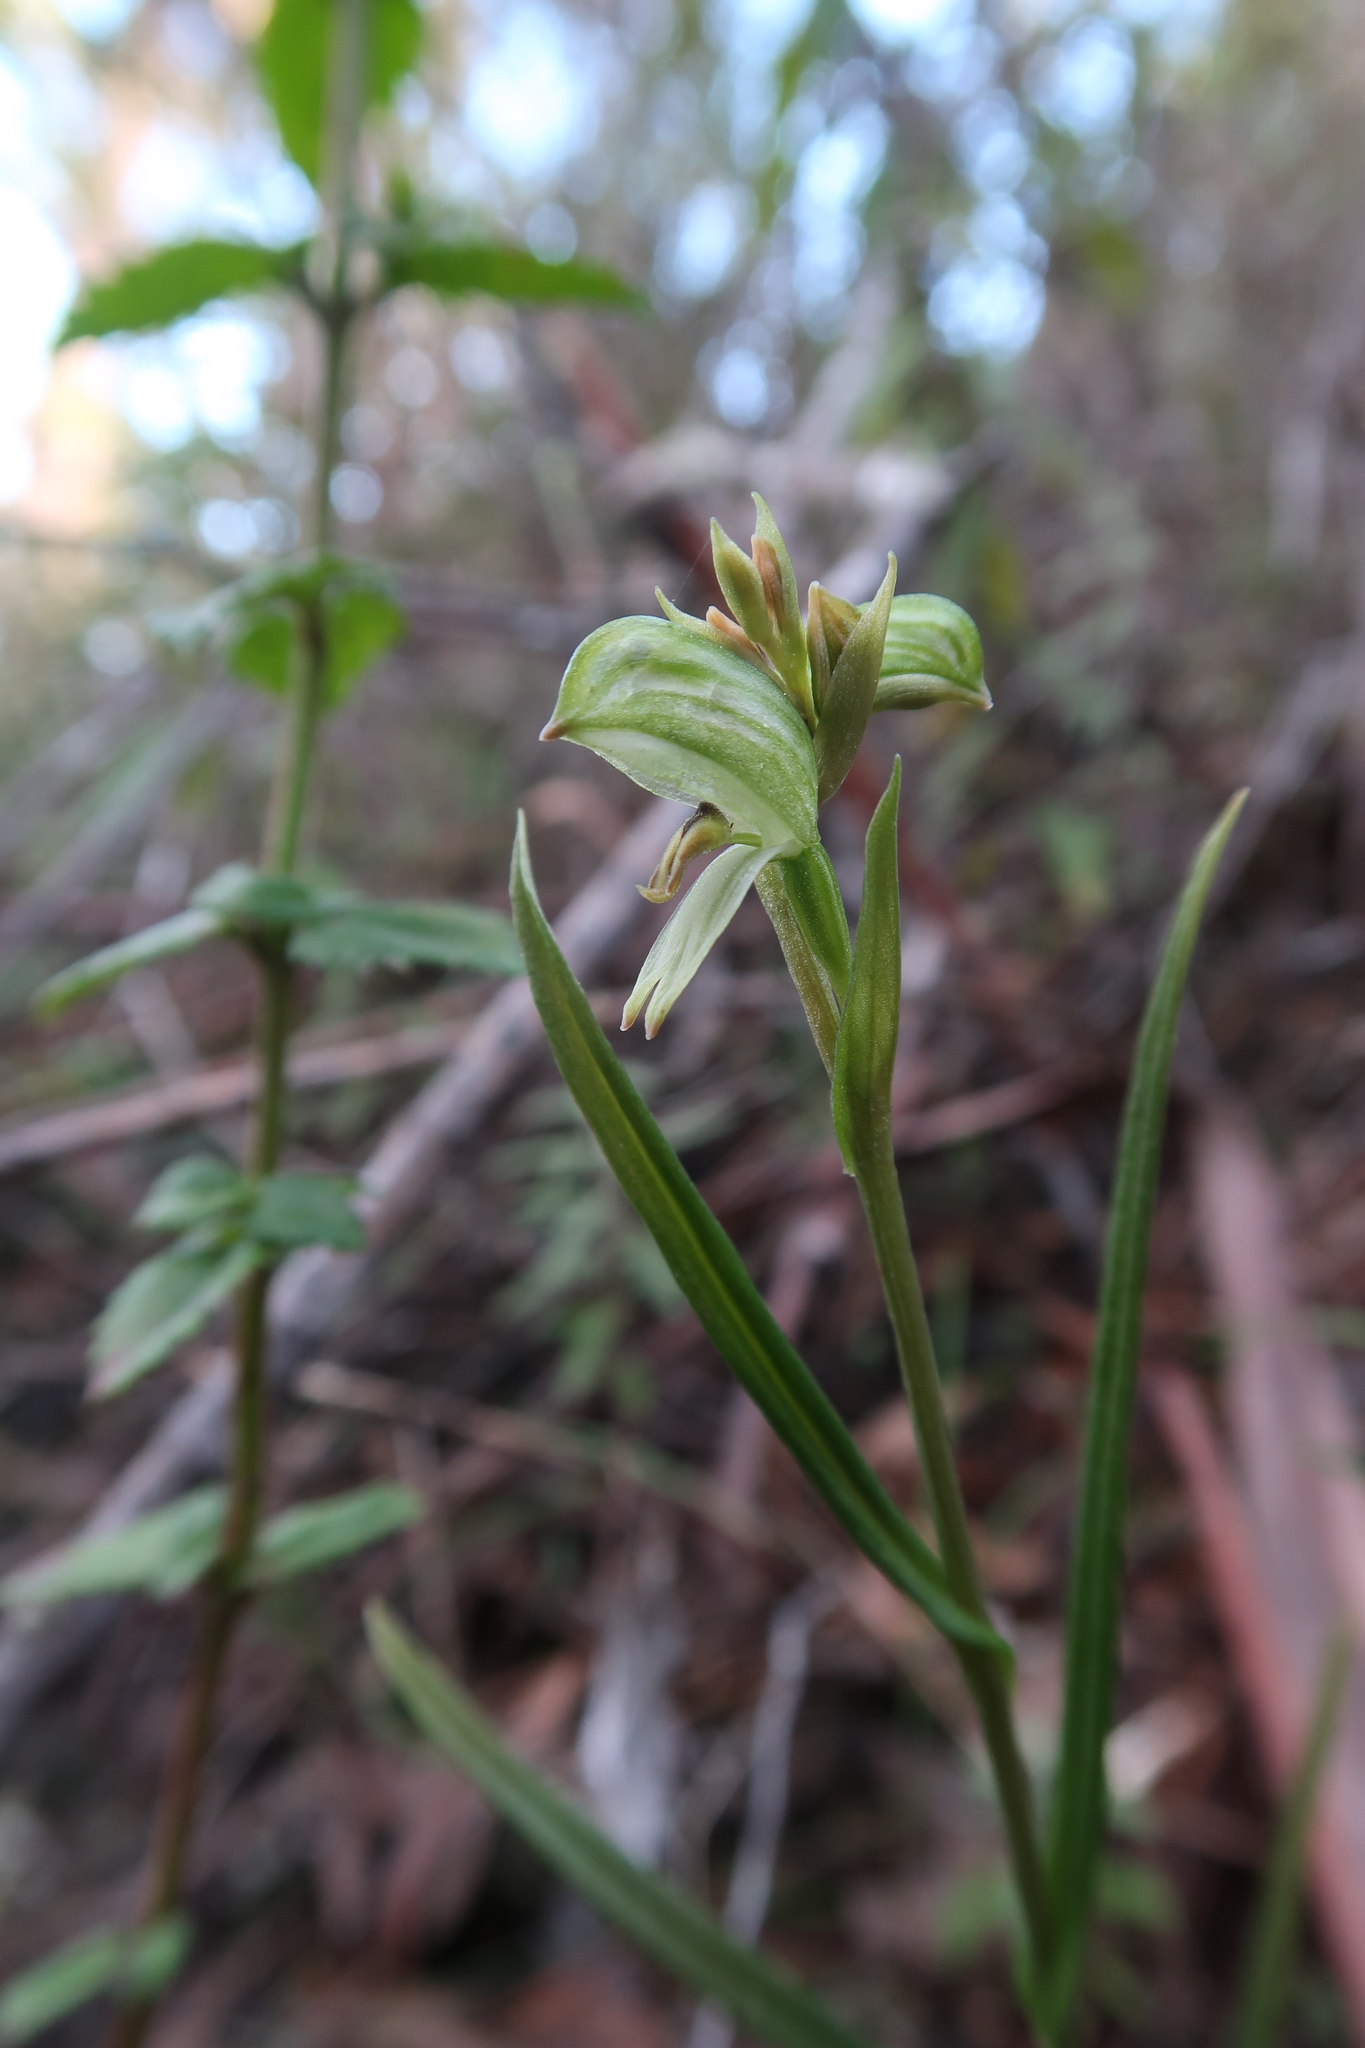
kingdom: Plantae
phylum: Tracheophyta
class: Liliopsida
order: Asparagales
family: Orchidaceae
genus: Pterostylis
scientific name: Pterostylis melagramma
